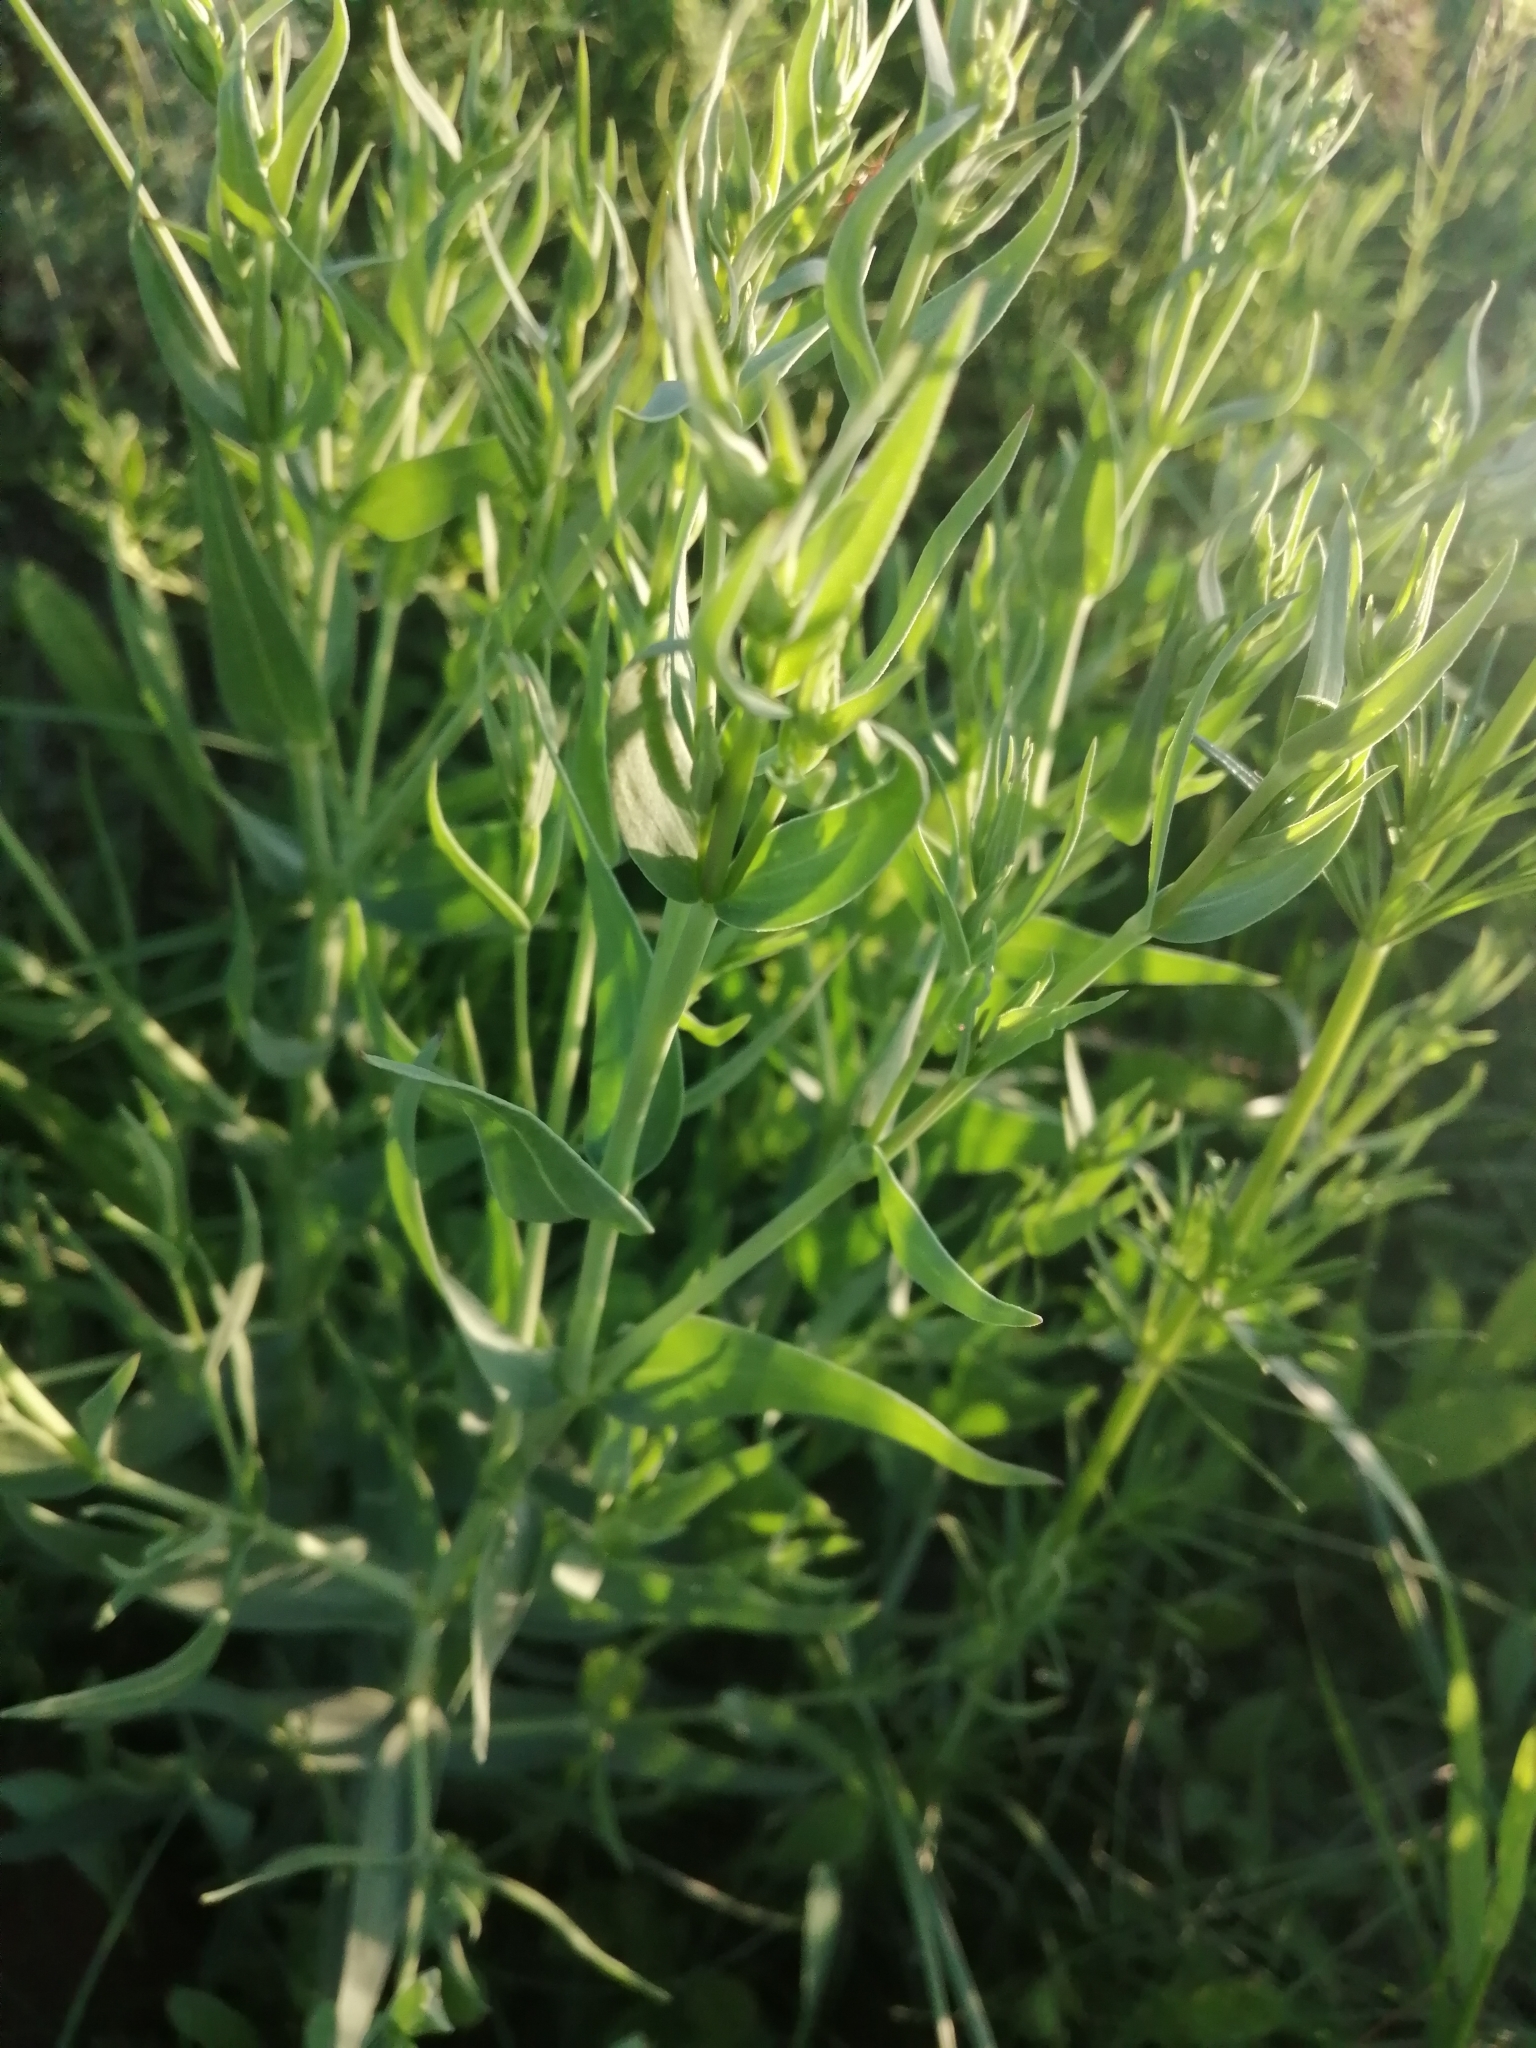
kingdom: Plantae
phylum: Tracheophyta
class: Magnoliopsida
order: Caryophyllales
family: Caryophyllaceae
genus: Gypsophila
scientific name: Gypsophila paniculata
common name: Baby's-breath
